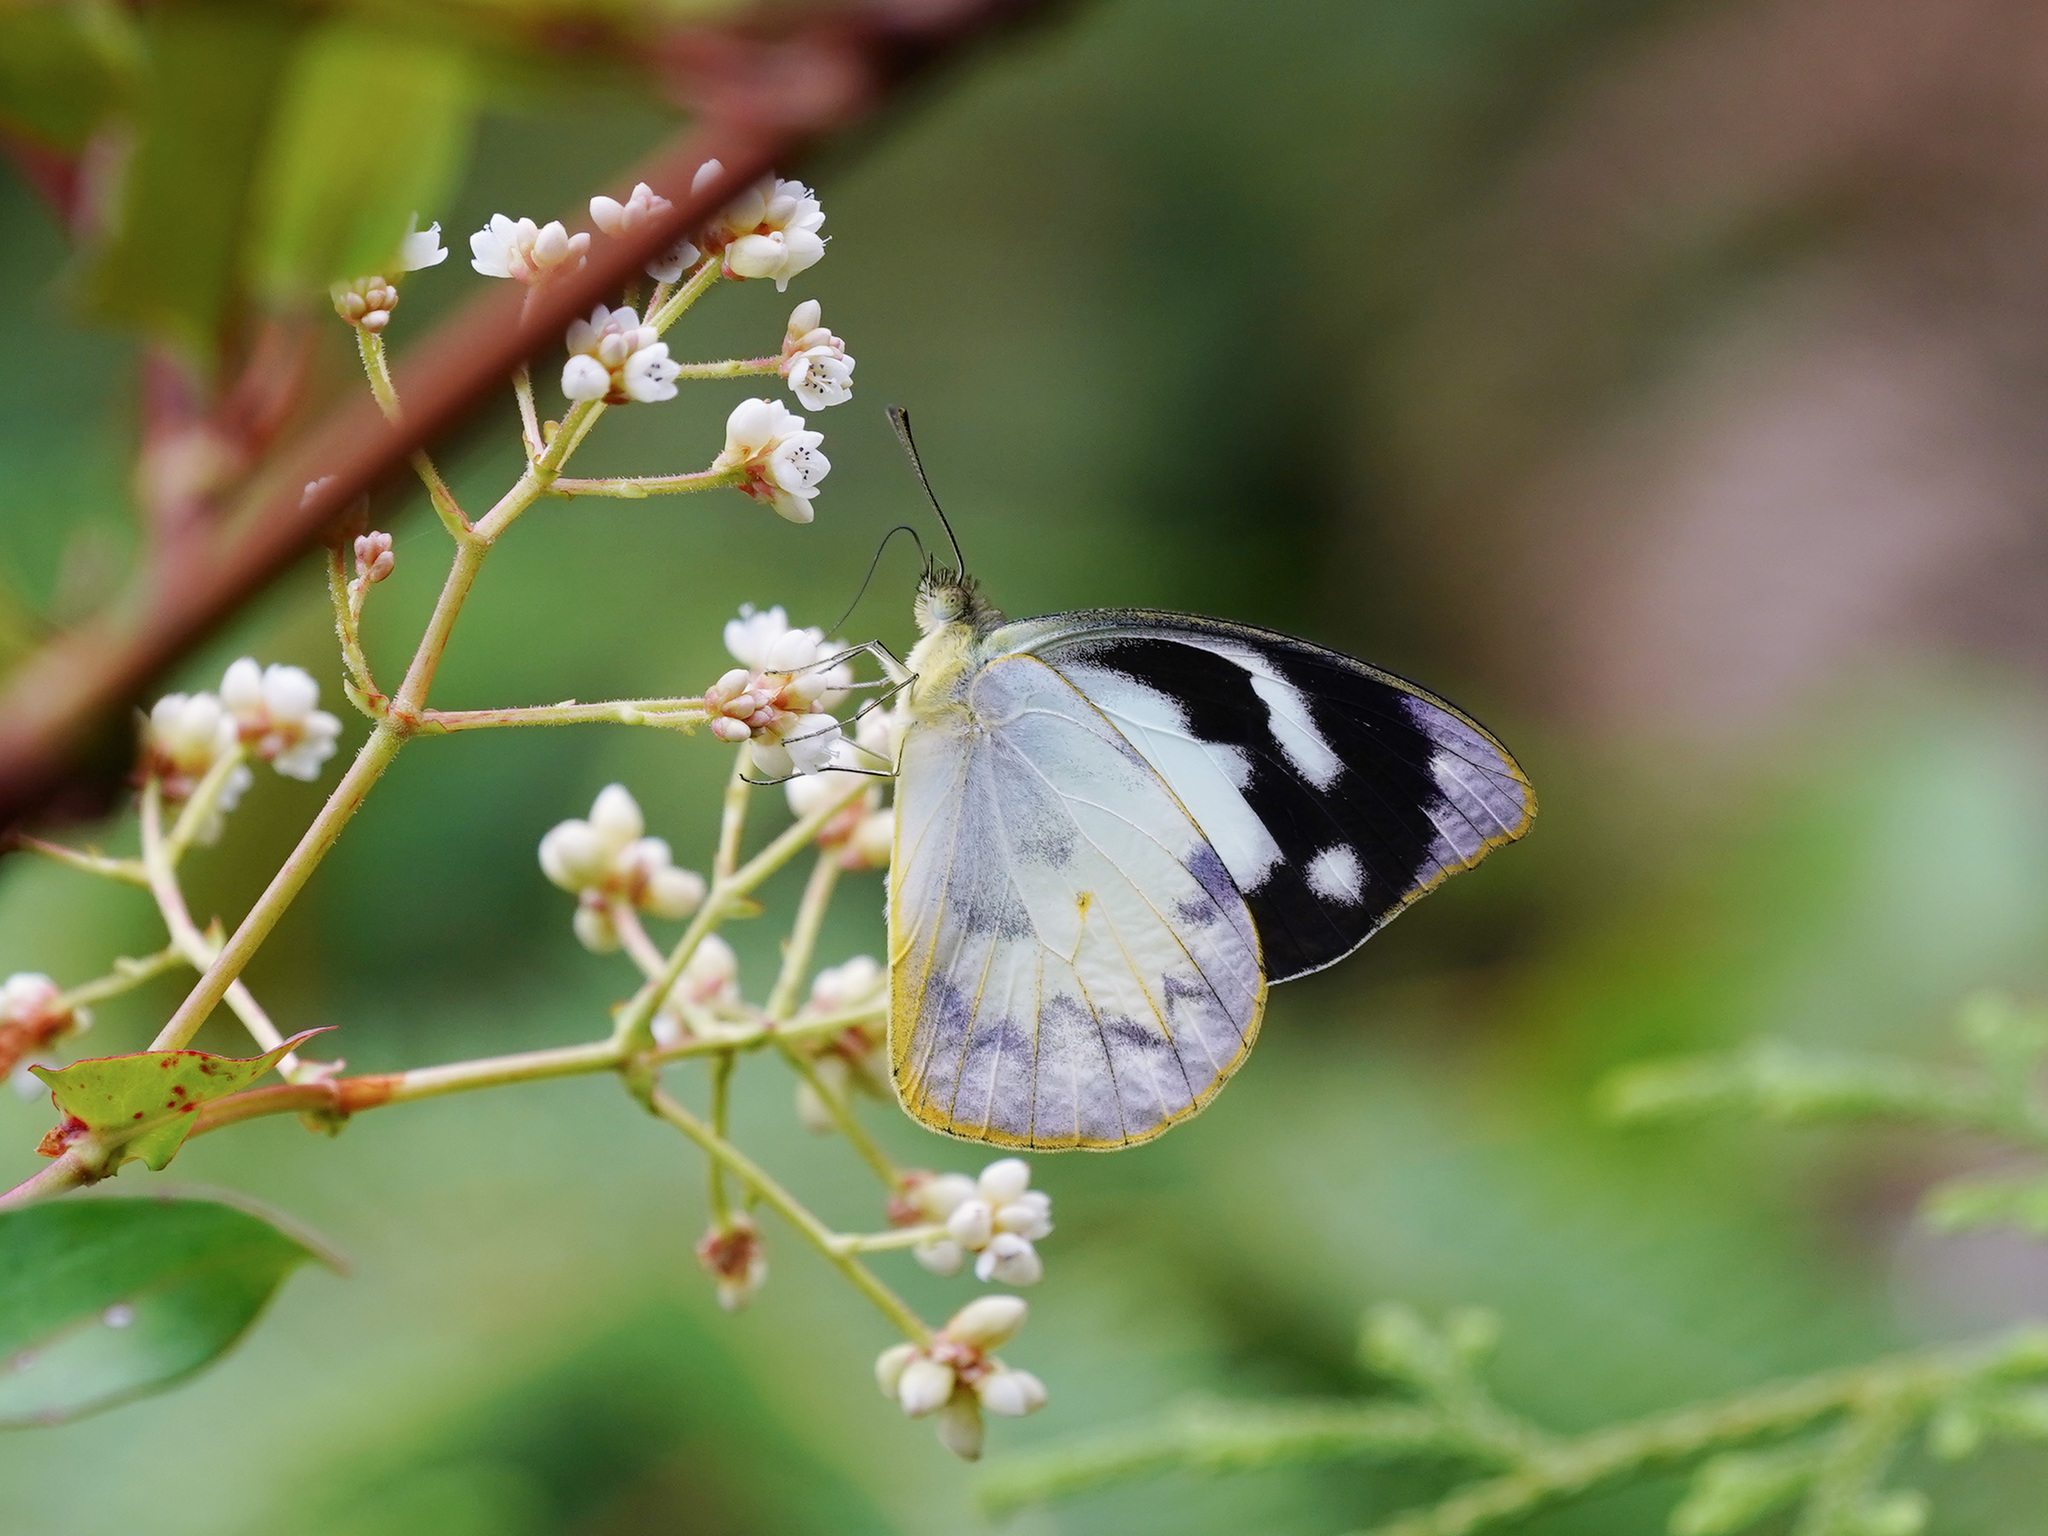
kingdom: Animalia
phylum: Arthropoda
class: Insecta
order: Lepidoptera
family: Pieridae
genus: Appias
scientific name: Appias pandione
